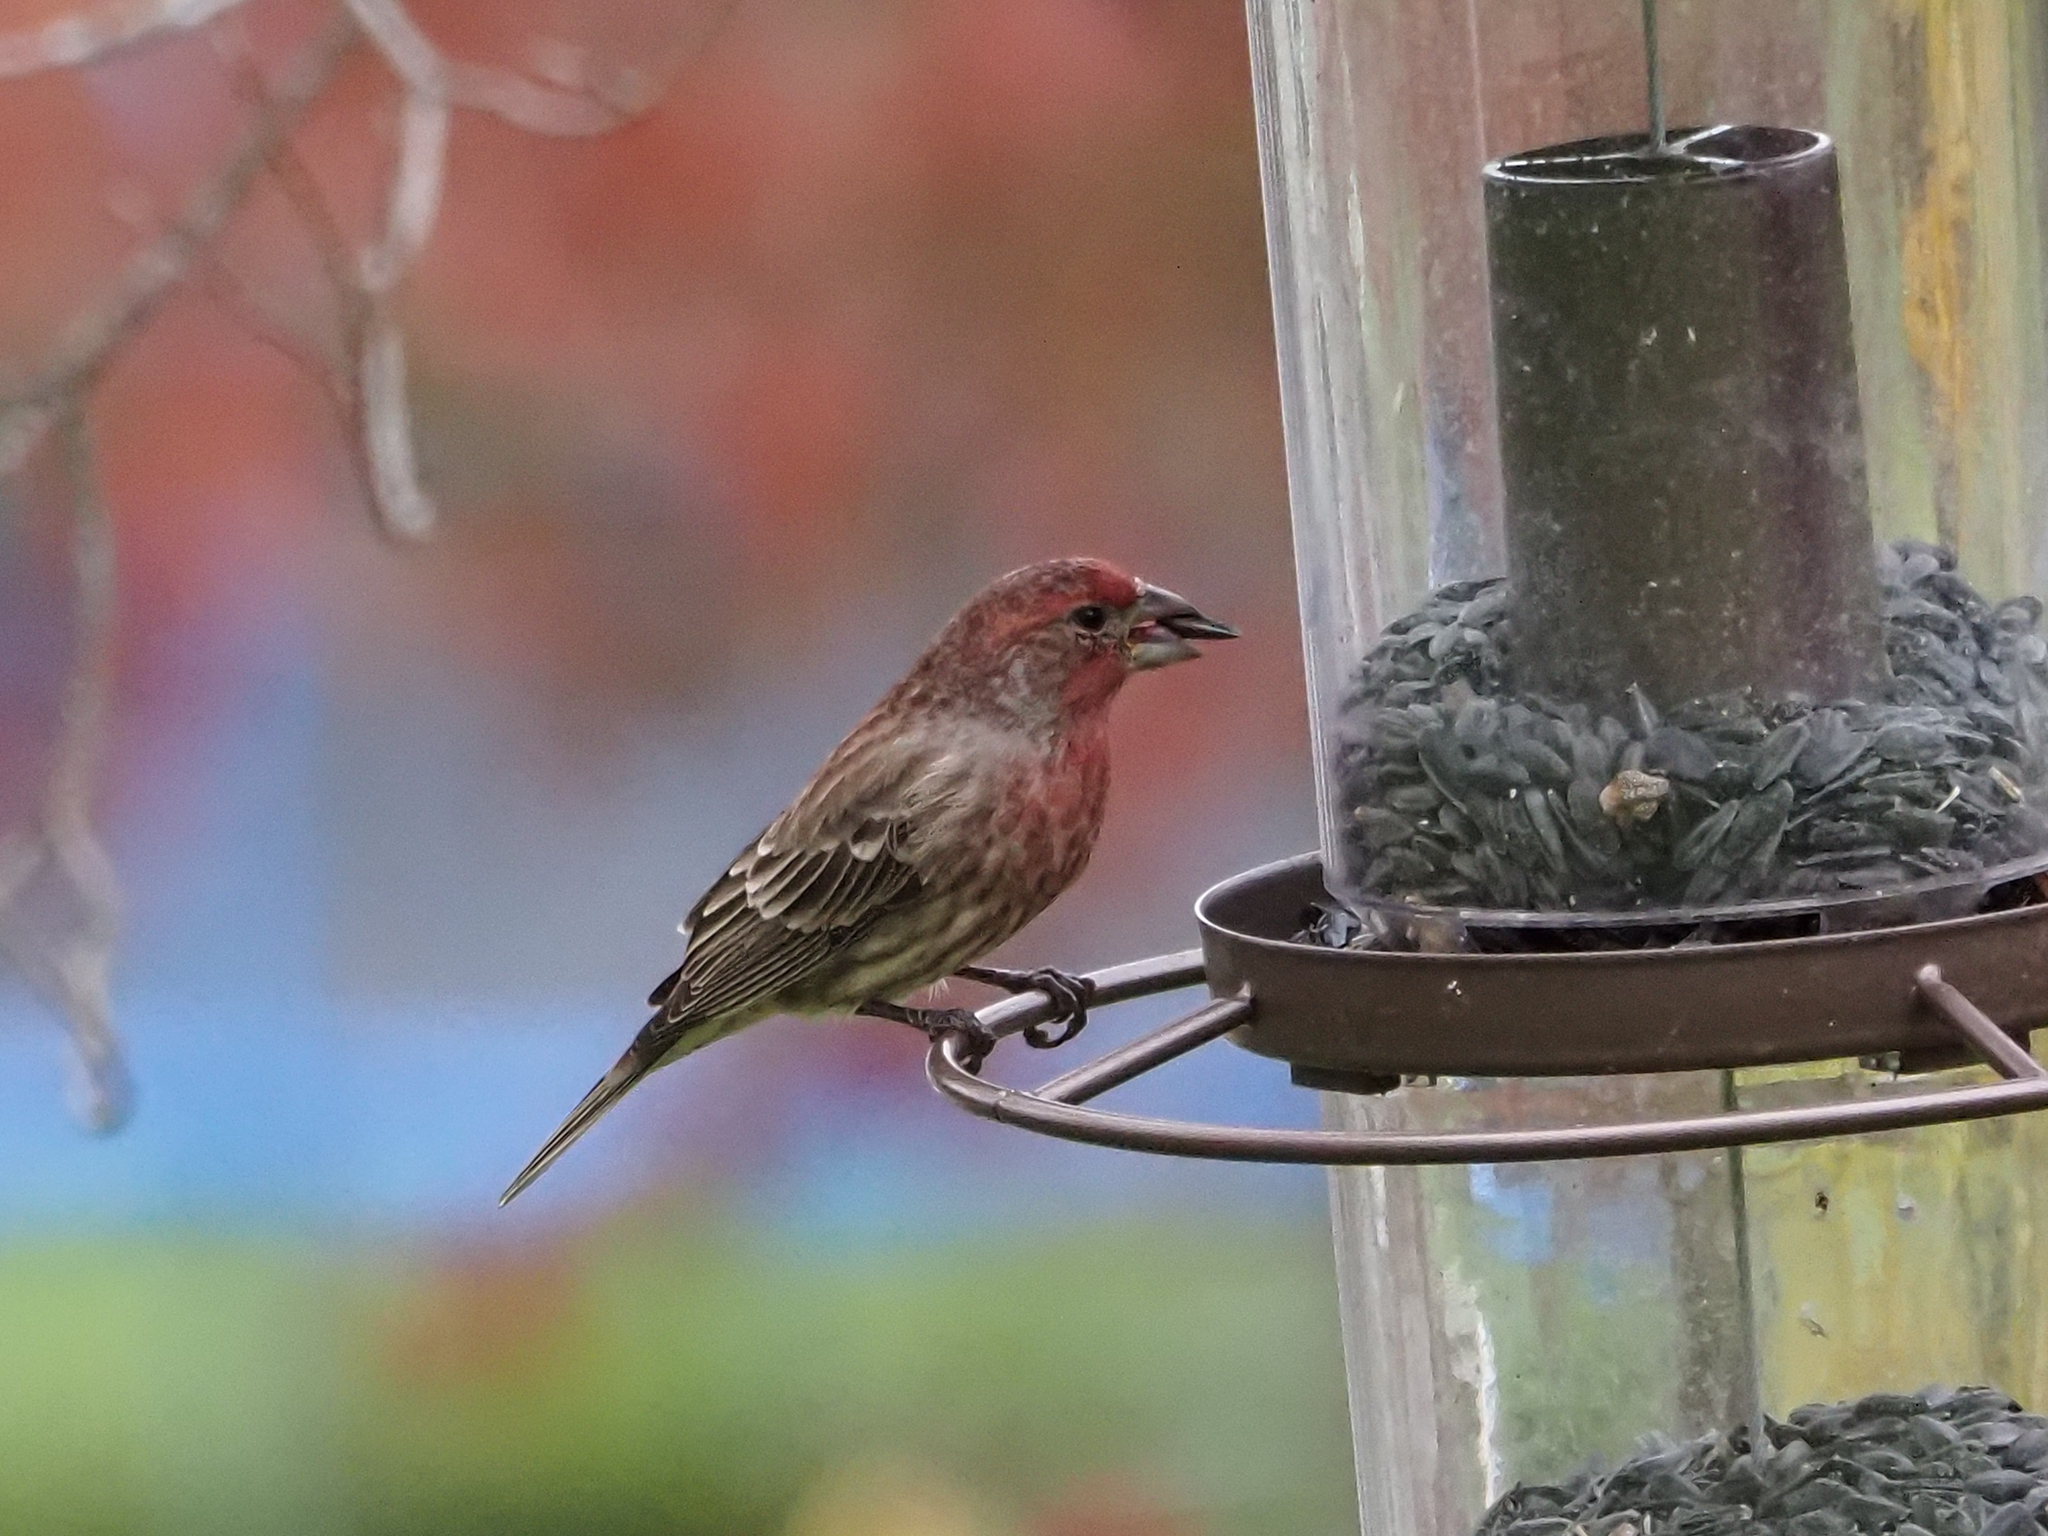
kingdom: Animalia
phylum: Chordata
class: Aves
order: Passeriformes
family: Fringillidae
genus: Haemorhous
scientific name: Haemorhous mexicanus
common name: House finch
